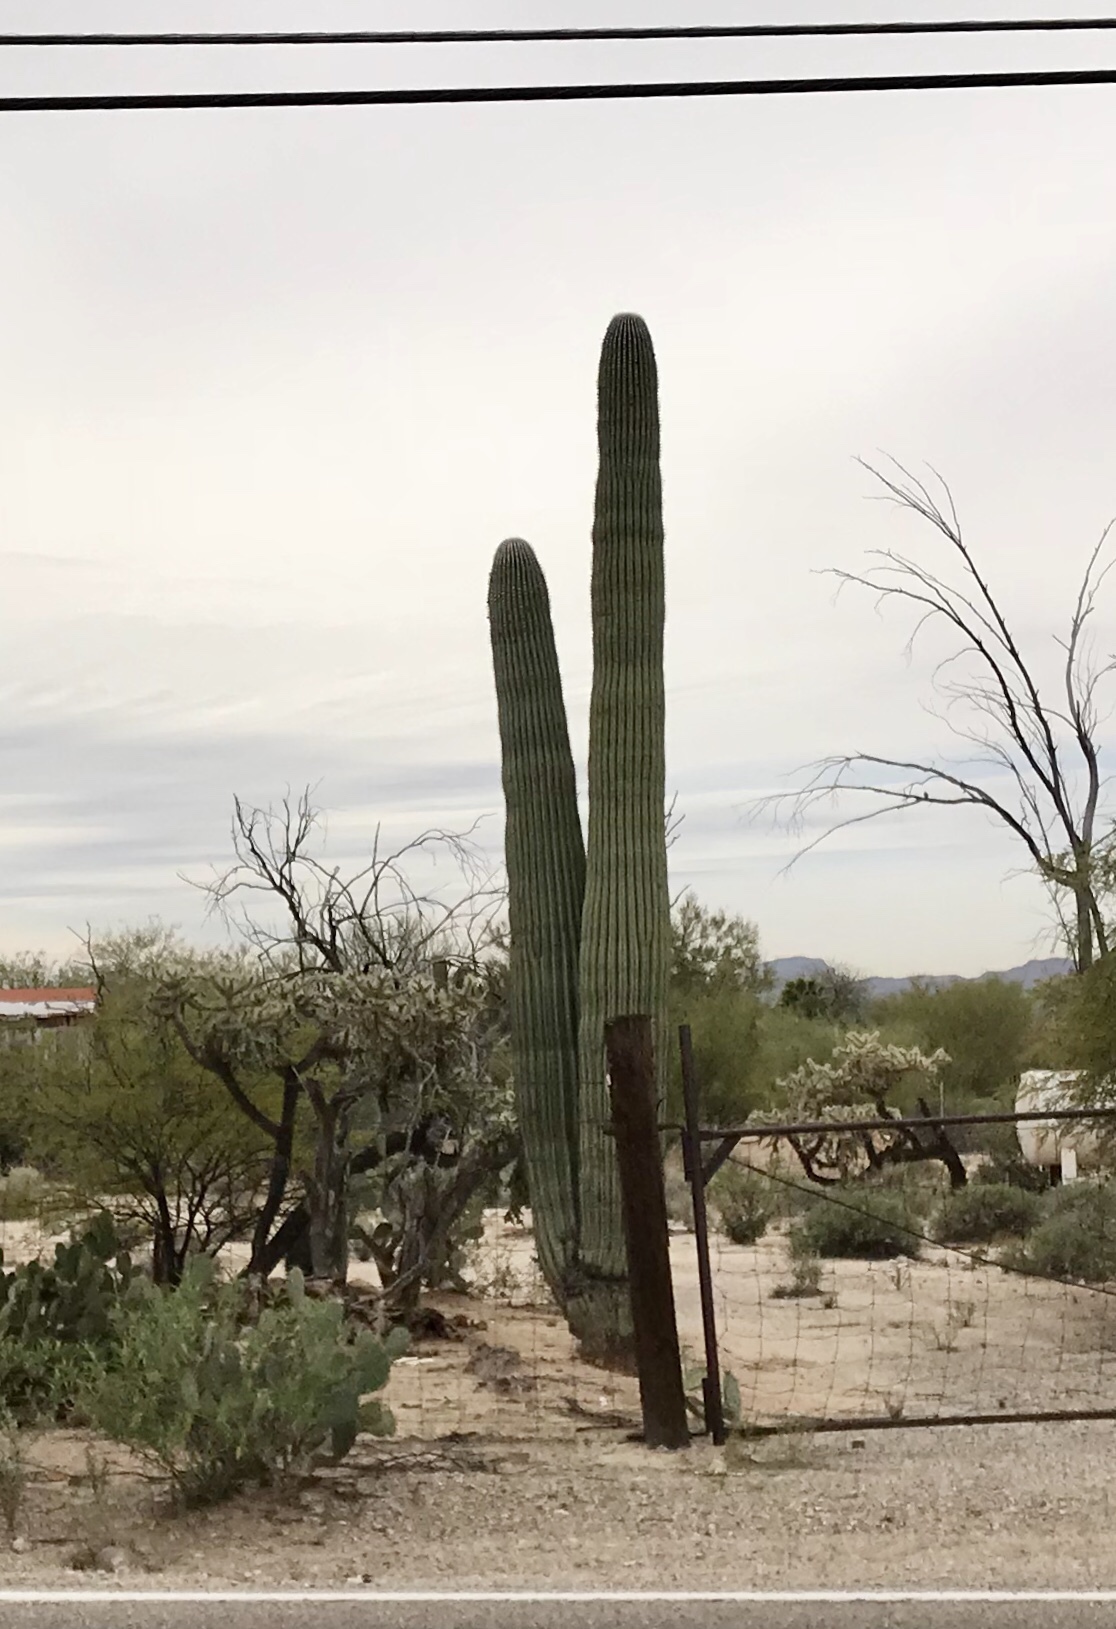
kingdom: Plantae
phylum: Tracheophyta
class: Magnoliopsida
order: Caryophyllales
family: Cactaceae
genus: Carnegiea
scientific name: Carnegiea gigantea
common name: Saguaro
